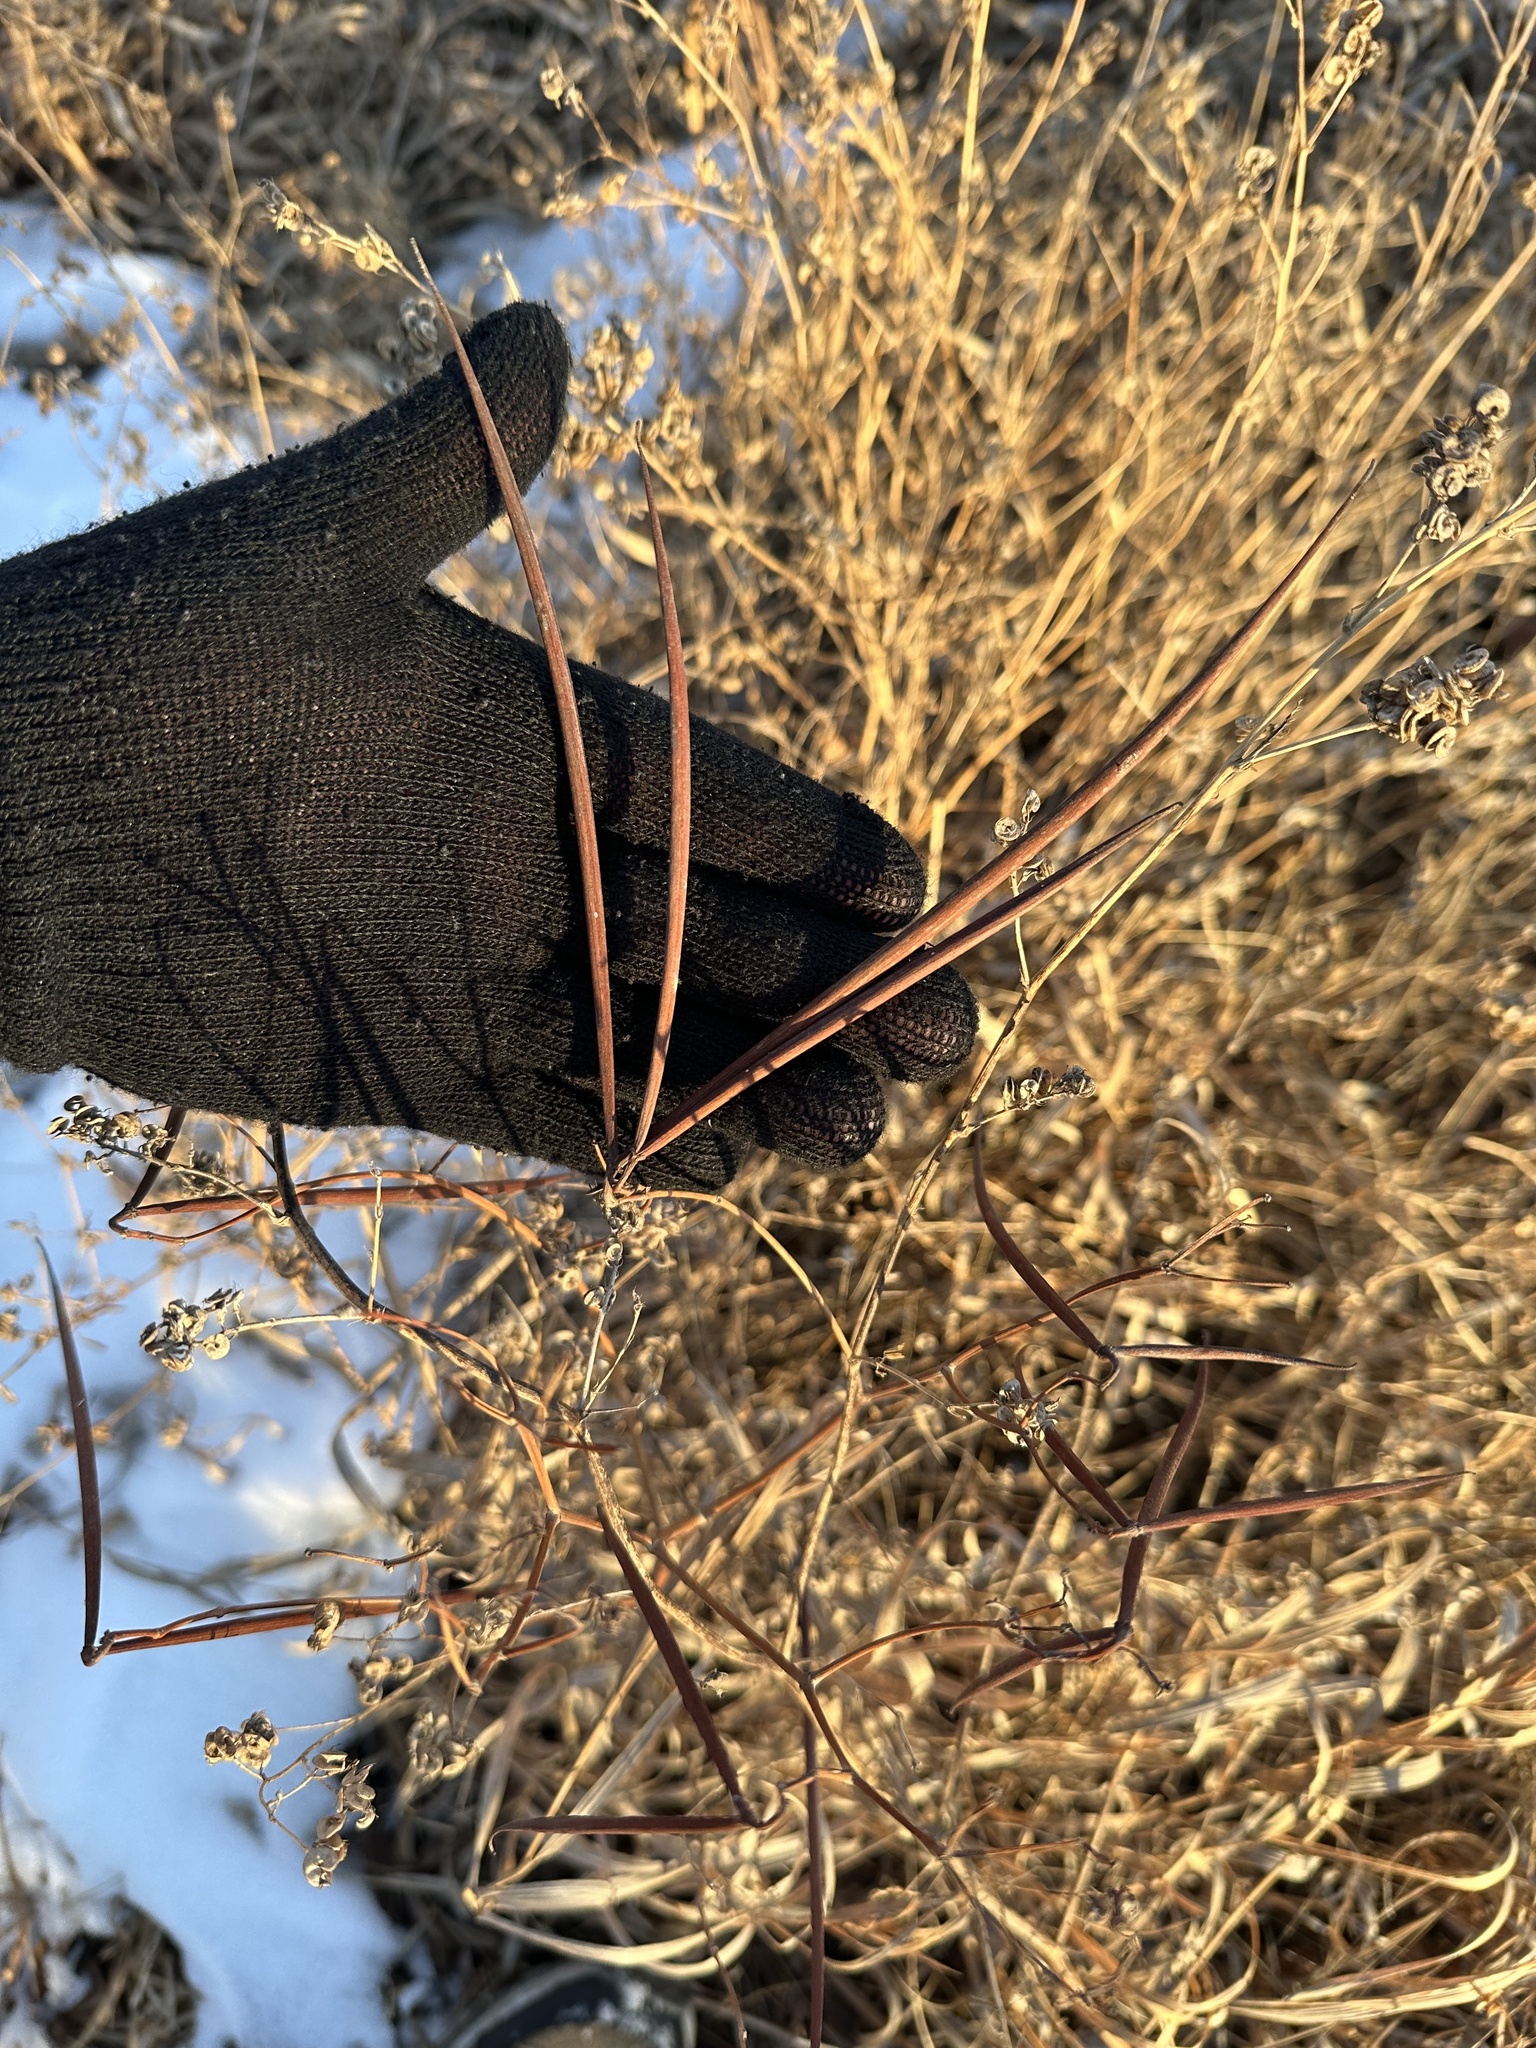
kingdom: Plantae
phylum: Tracheophyta
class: Magnoliopsida
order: Gentianales
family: Apocynaceae
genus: Apocynum
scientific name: Apocynum androsaemifolium
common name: Spreading dogbane
